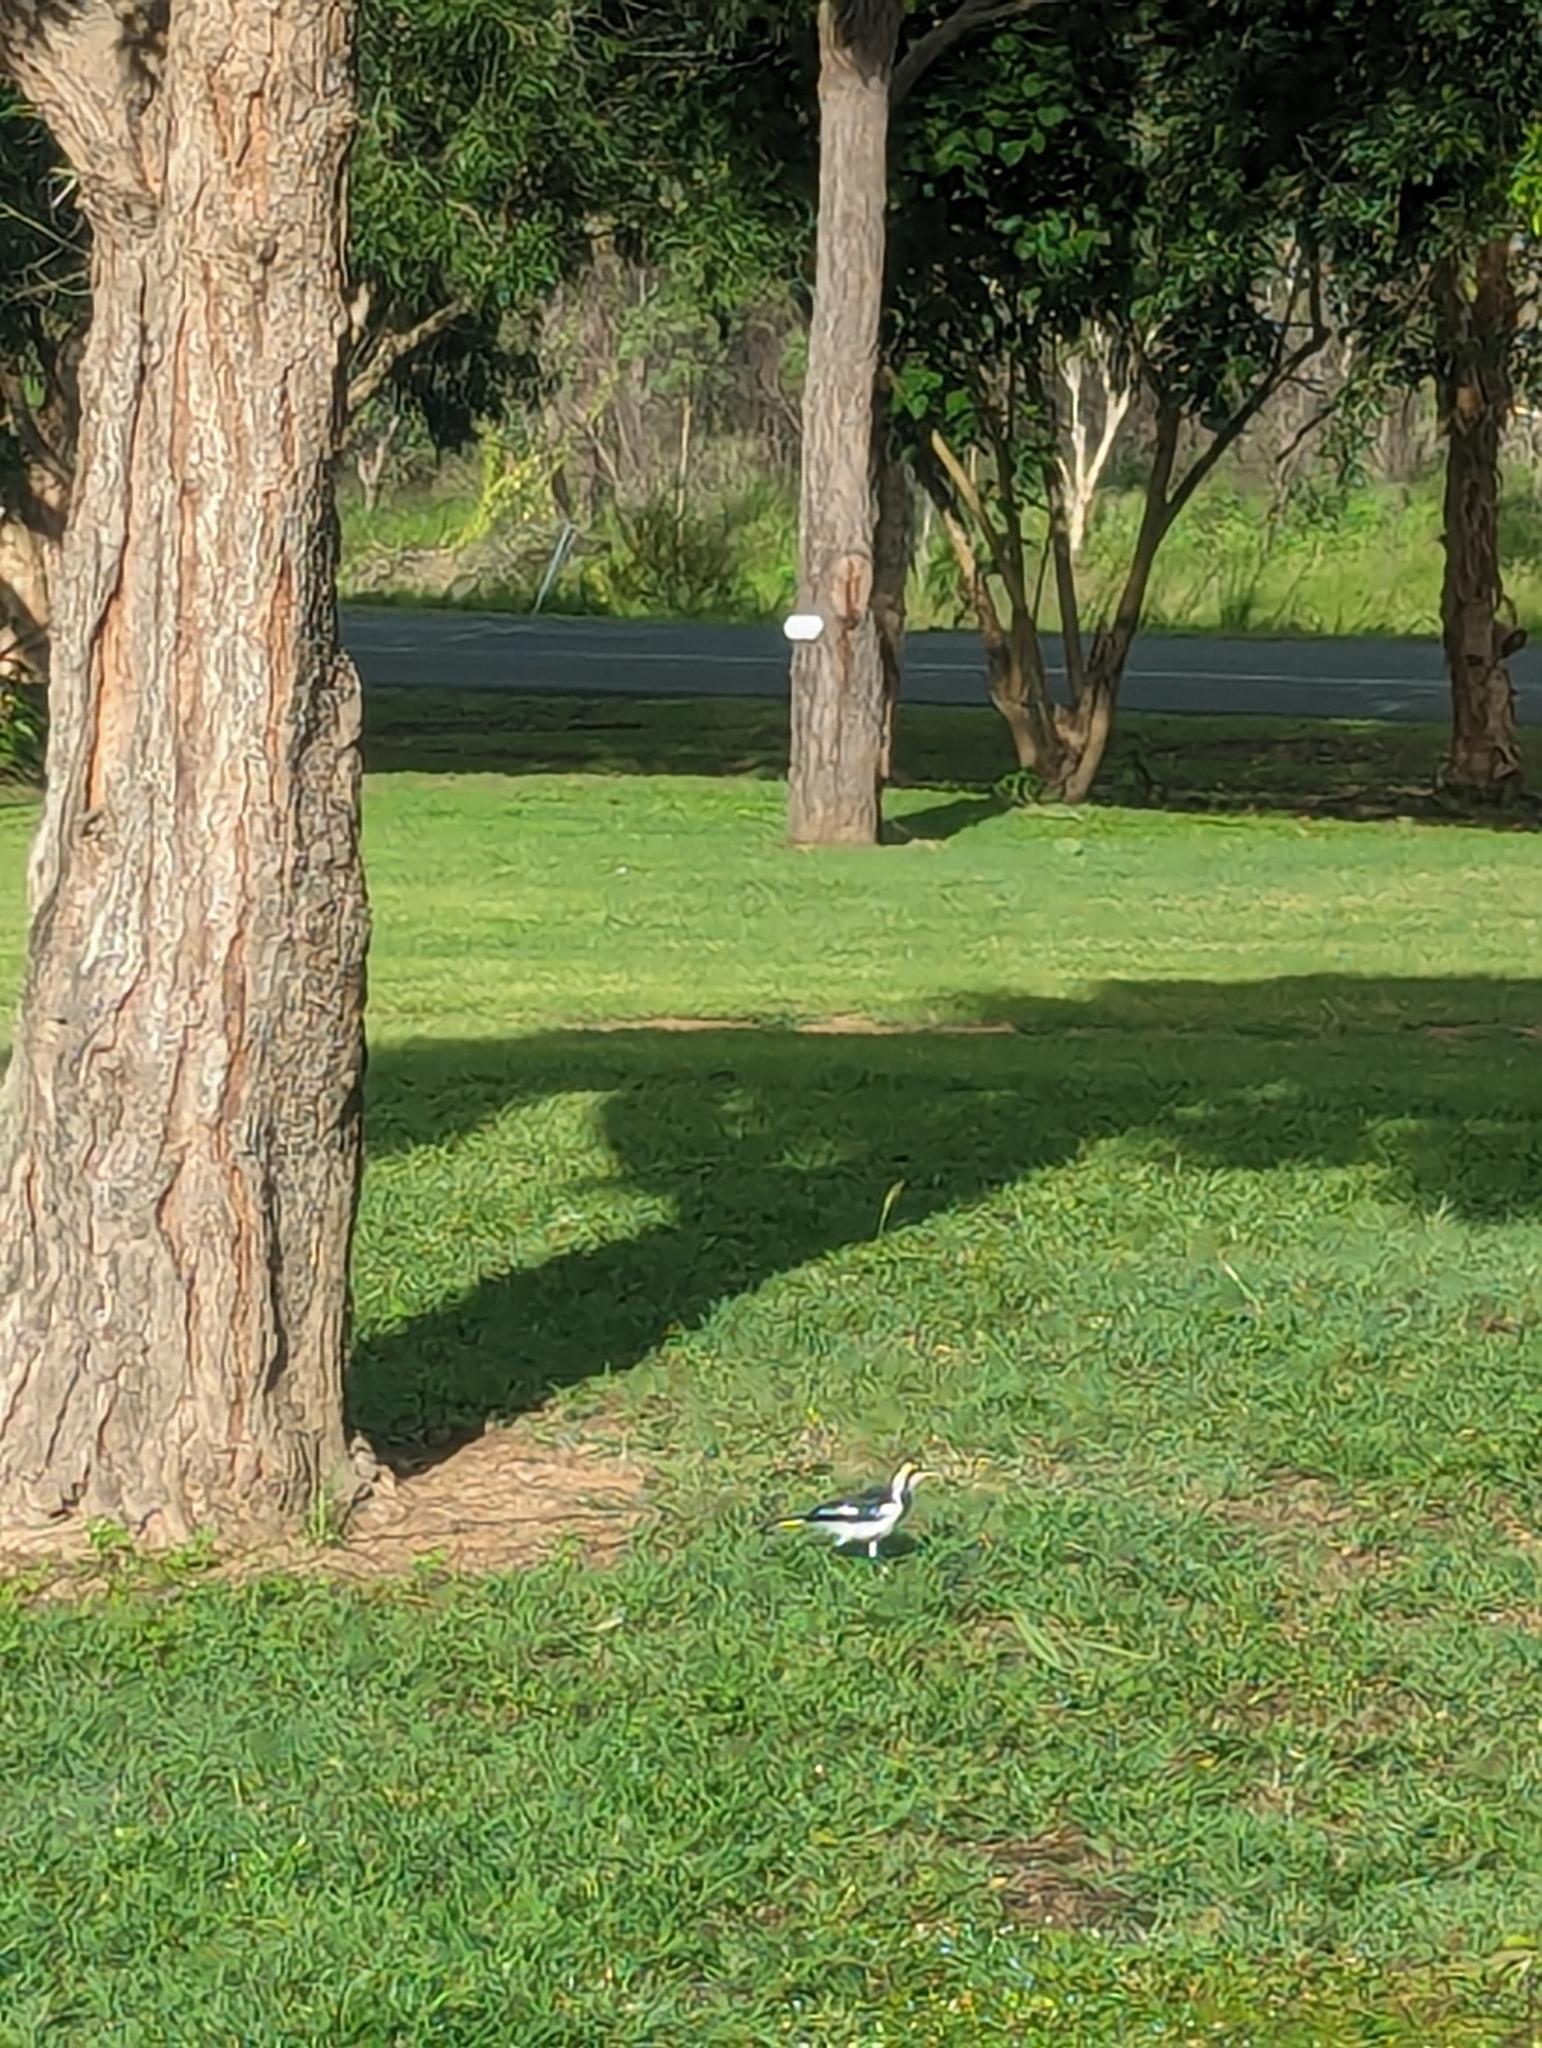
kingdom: Animalia
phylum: Chordata
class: Aves
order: Passeriformes
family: Monarchidae
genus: Grallina
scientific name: Grallina cyanoleuca
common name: Magpie-lark
